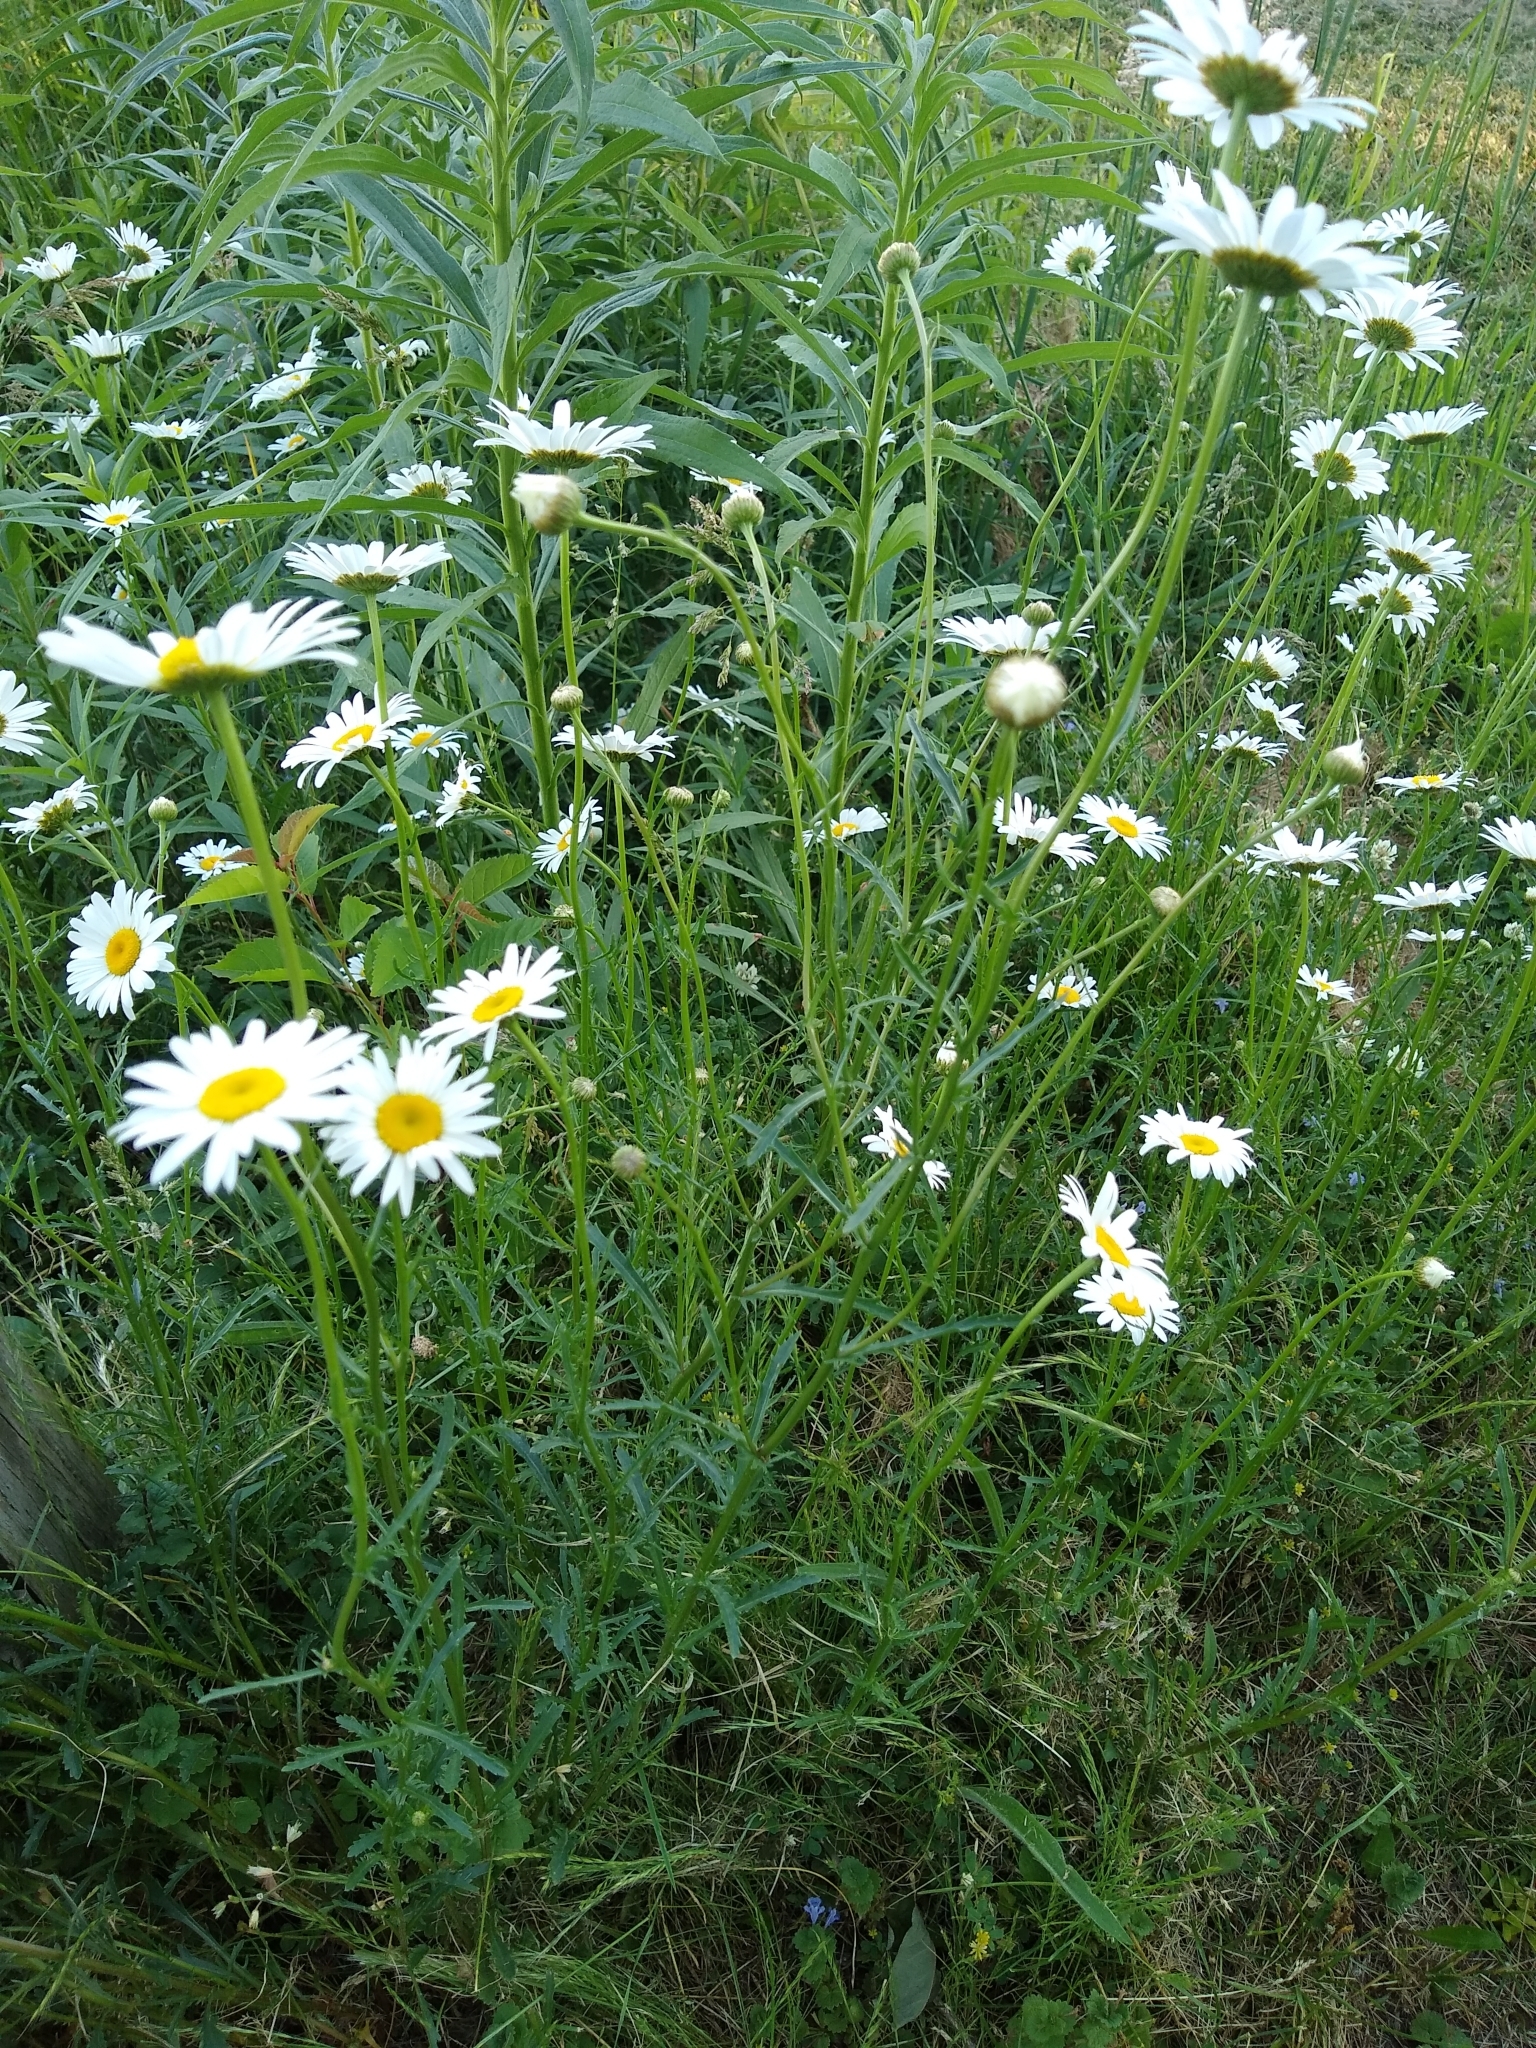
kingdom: Plantae
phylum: Tracheophyta
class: Magnoliopsida
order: Asterales
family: Asteraceae
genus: Leucanthemum
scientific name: Leucanthemum vulgare
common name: Oxeye daisy
